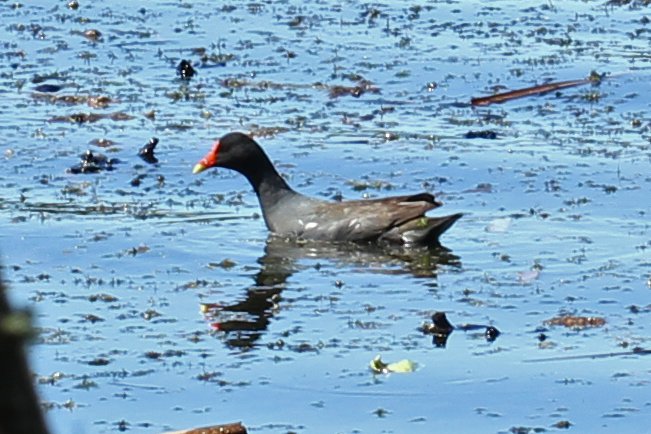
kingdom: Animalia
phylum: Chordata
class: Aves
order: Gruiformes
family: Rallidae
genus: Gallinula
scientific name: Gallinula chloropus
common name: Common moorhen
